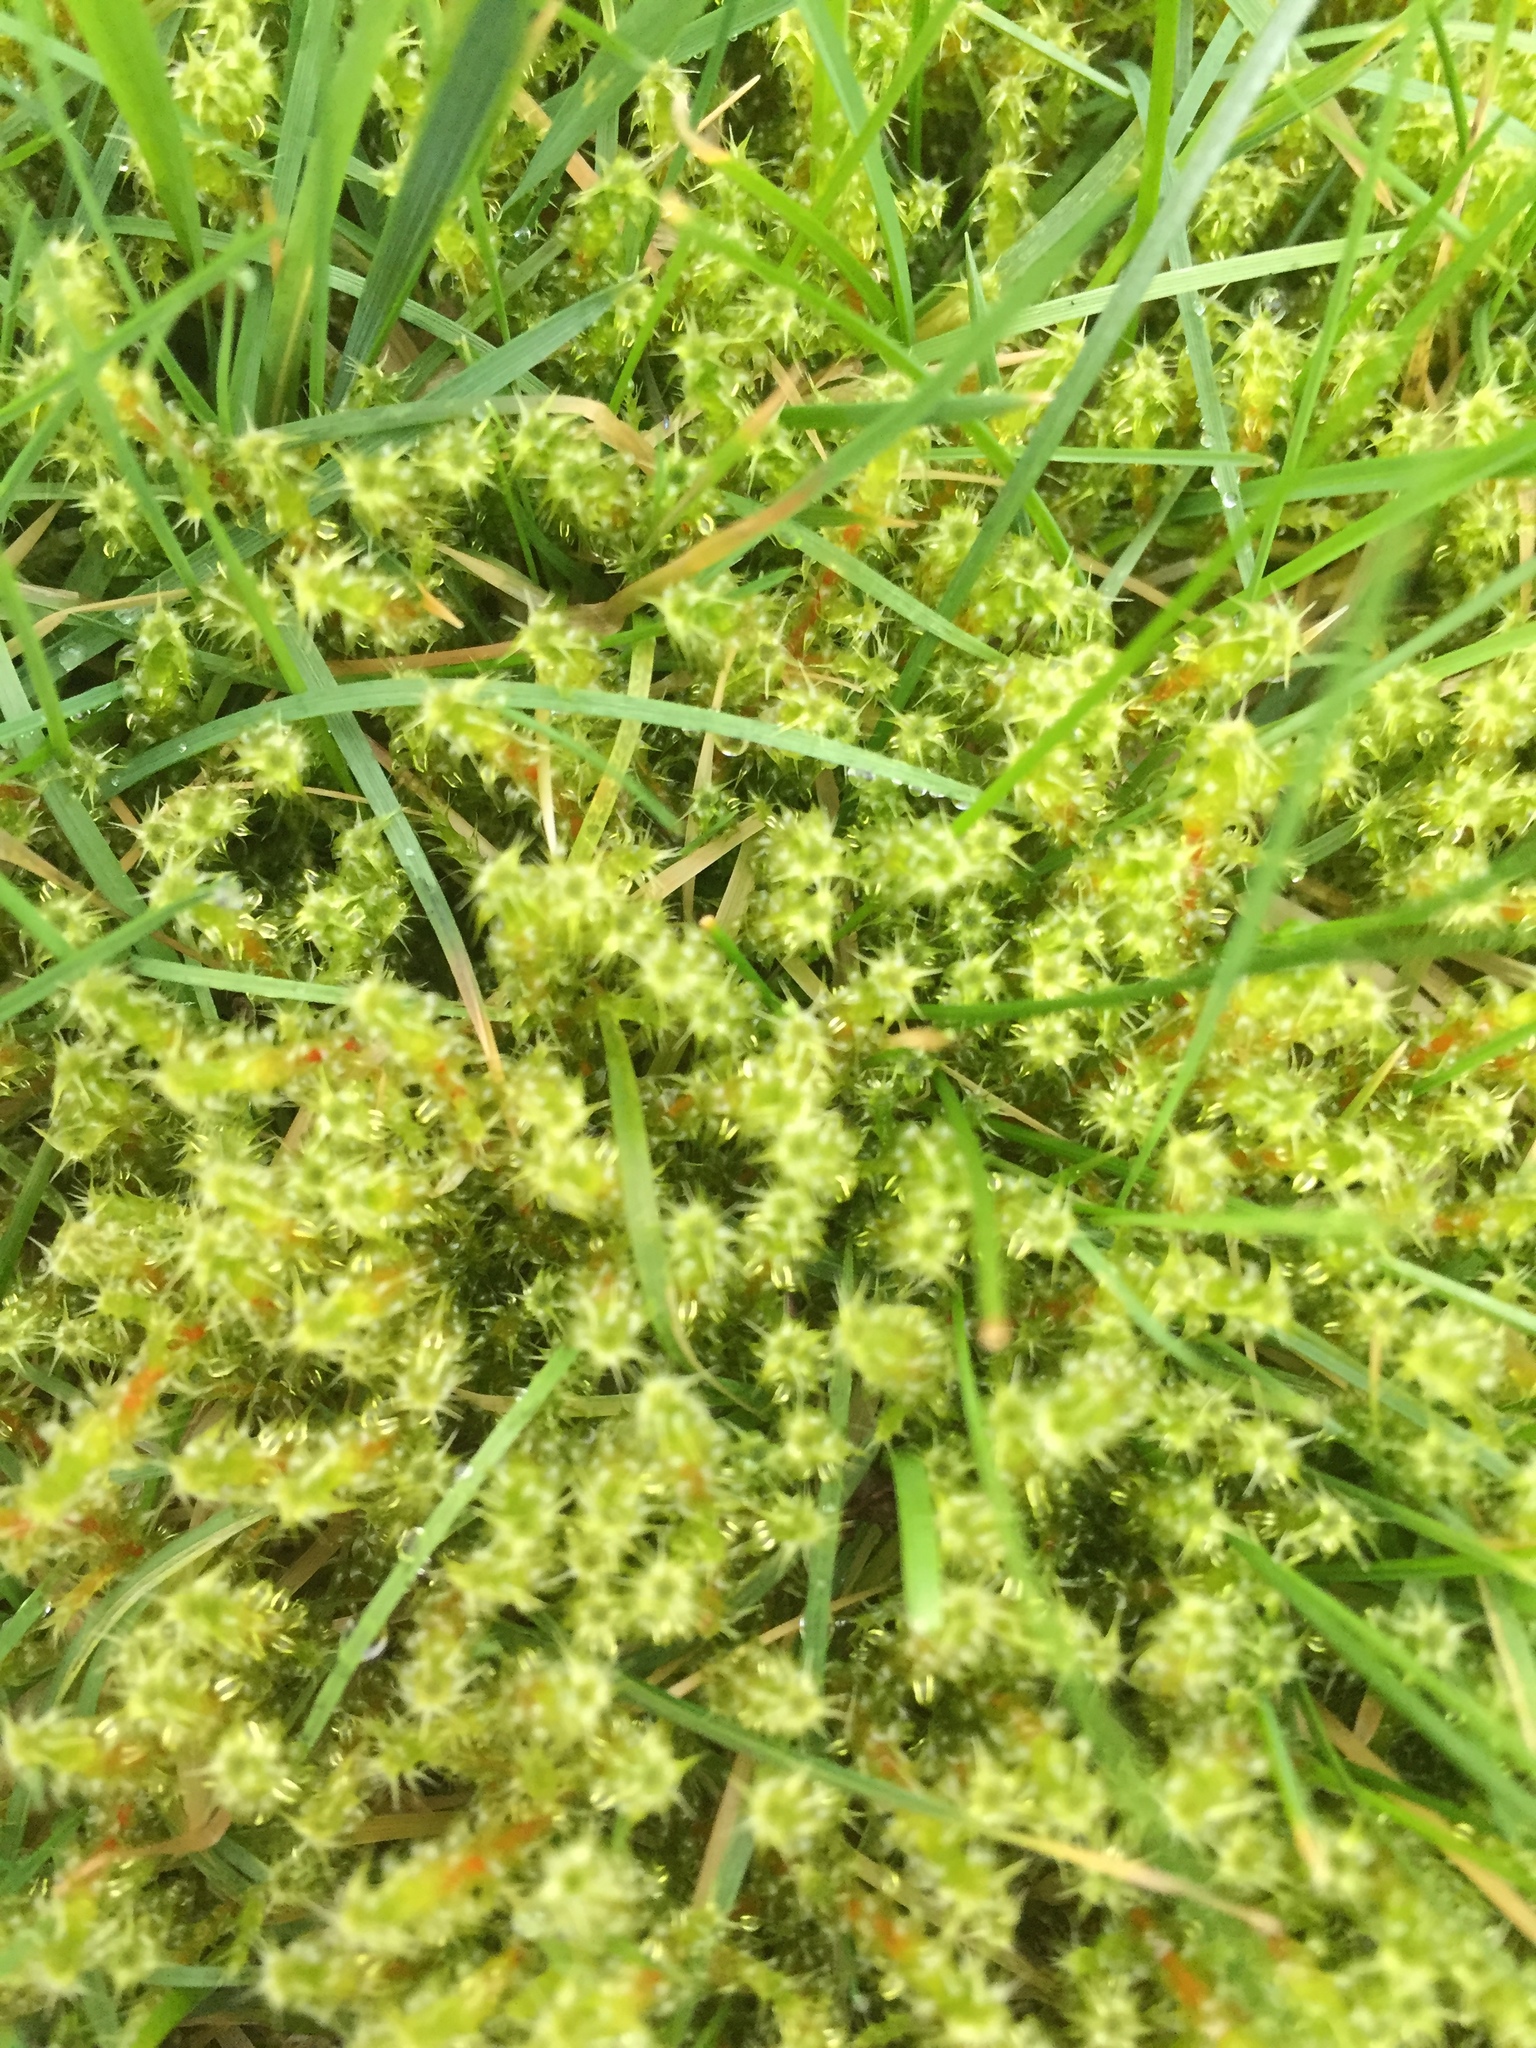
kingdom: Plantae
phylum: Bryophyta
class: Bryopsida
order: Hypnales
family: Hylocomiaceae
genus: Rhytidiadelphus
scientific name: Rhytidiadelphus squarrosus
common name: Springy turf-moss
